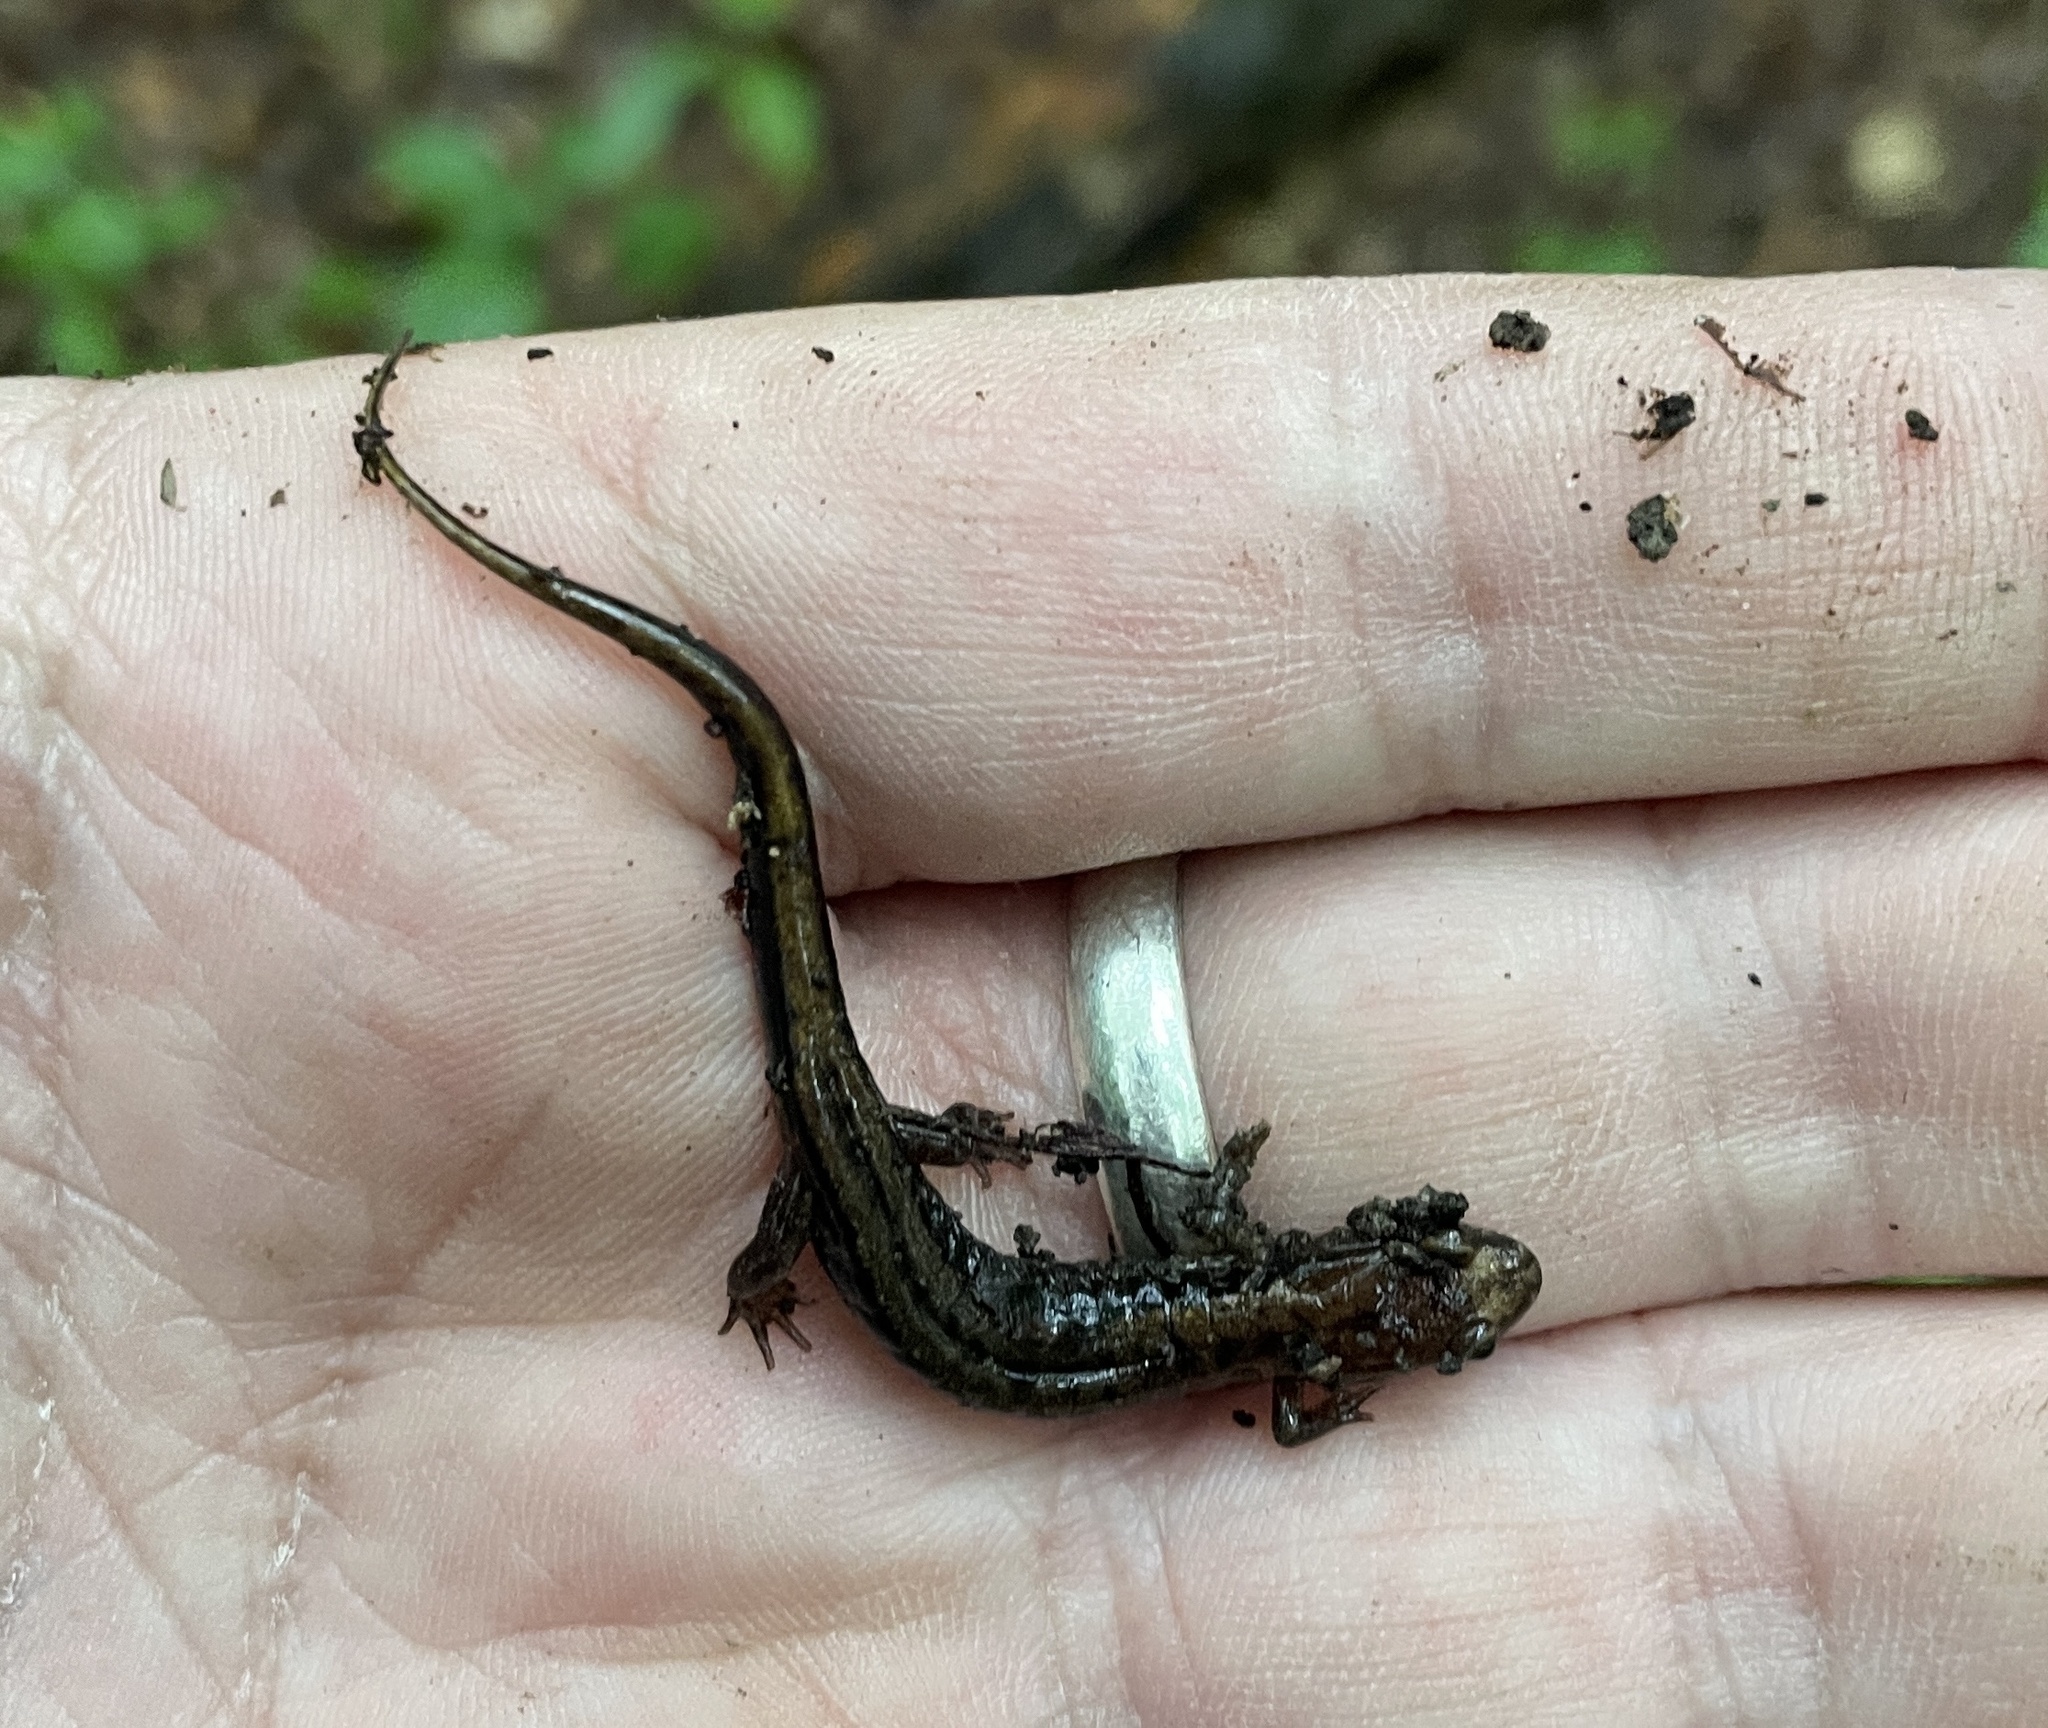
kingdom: Animalia
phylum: Chordata
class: Amphibia
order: Caudata
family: Plethodontidae
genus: Desmognathus
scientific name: Desmognathus ochrophaeus
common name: Allegheny mountain dusky salamander
